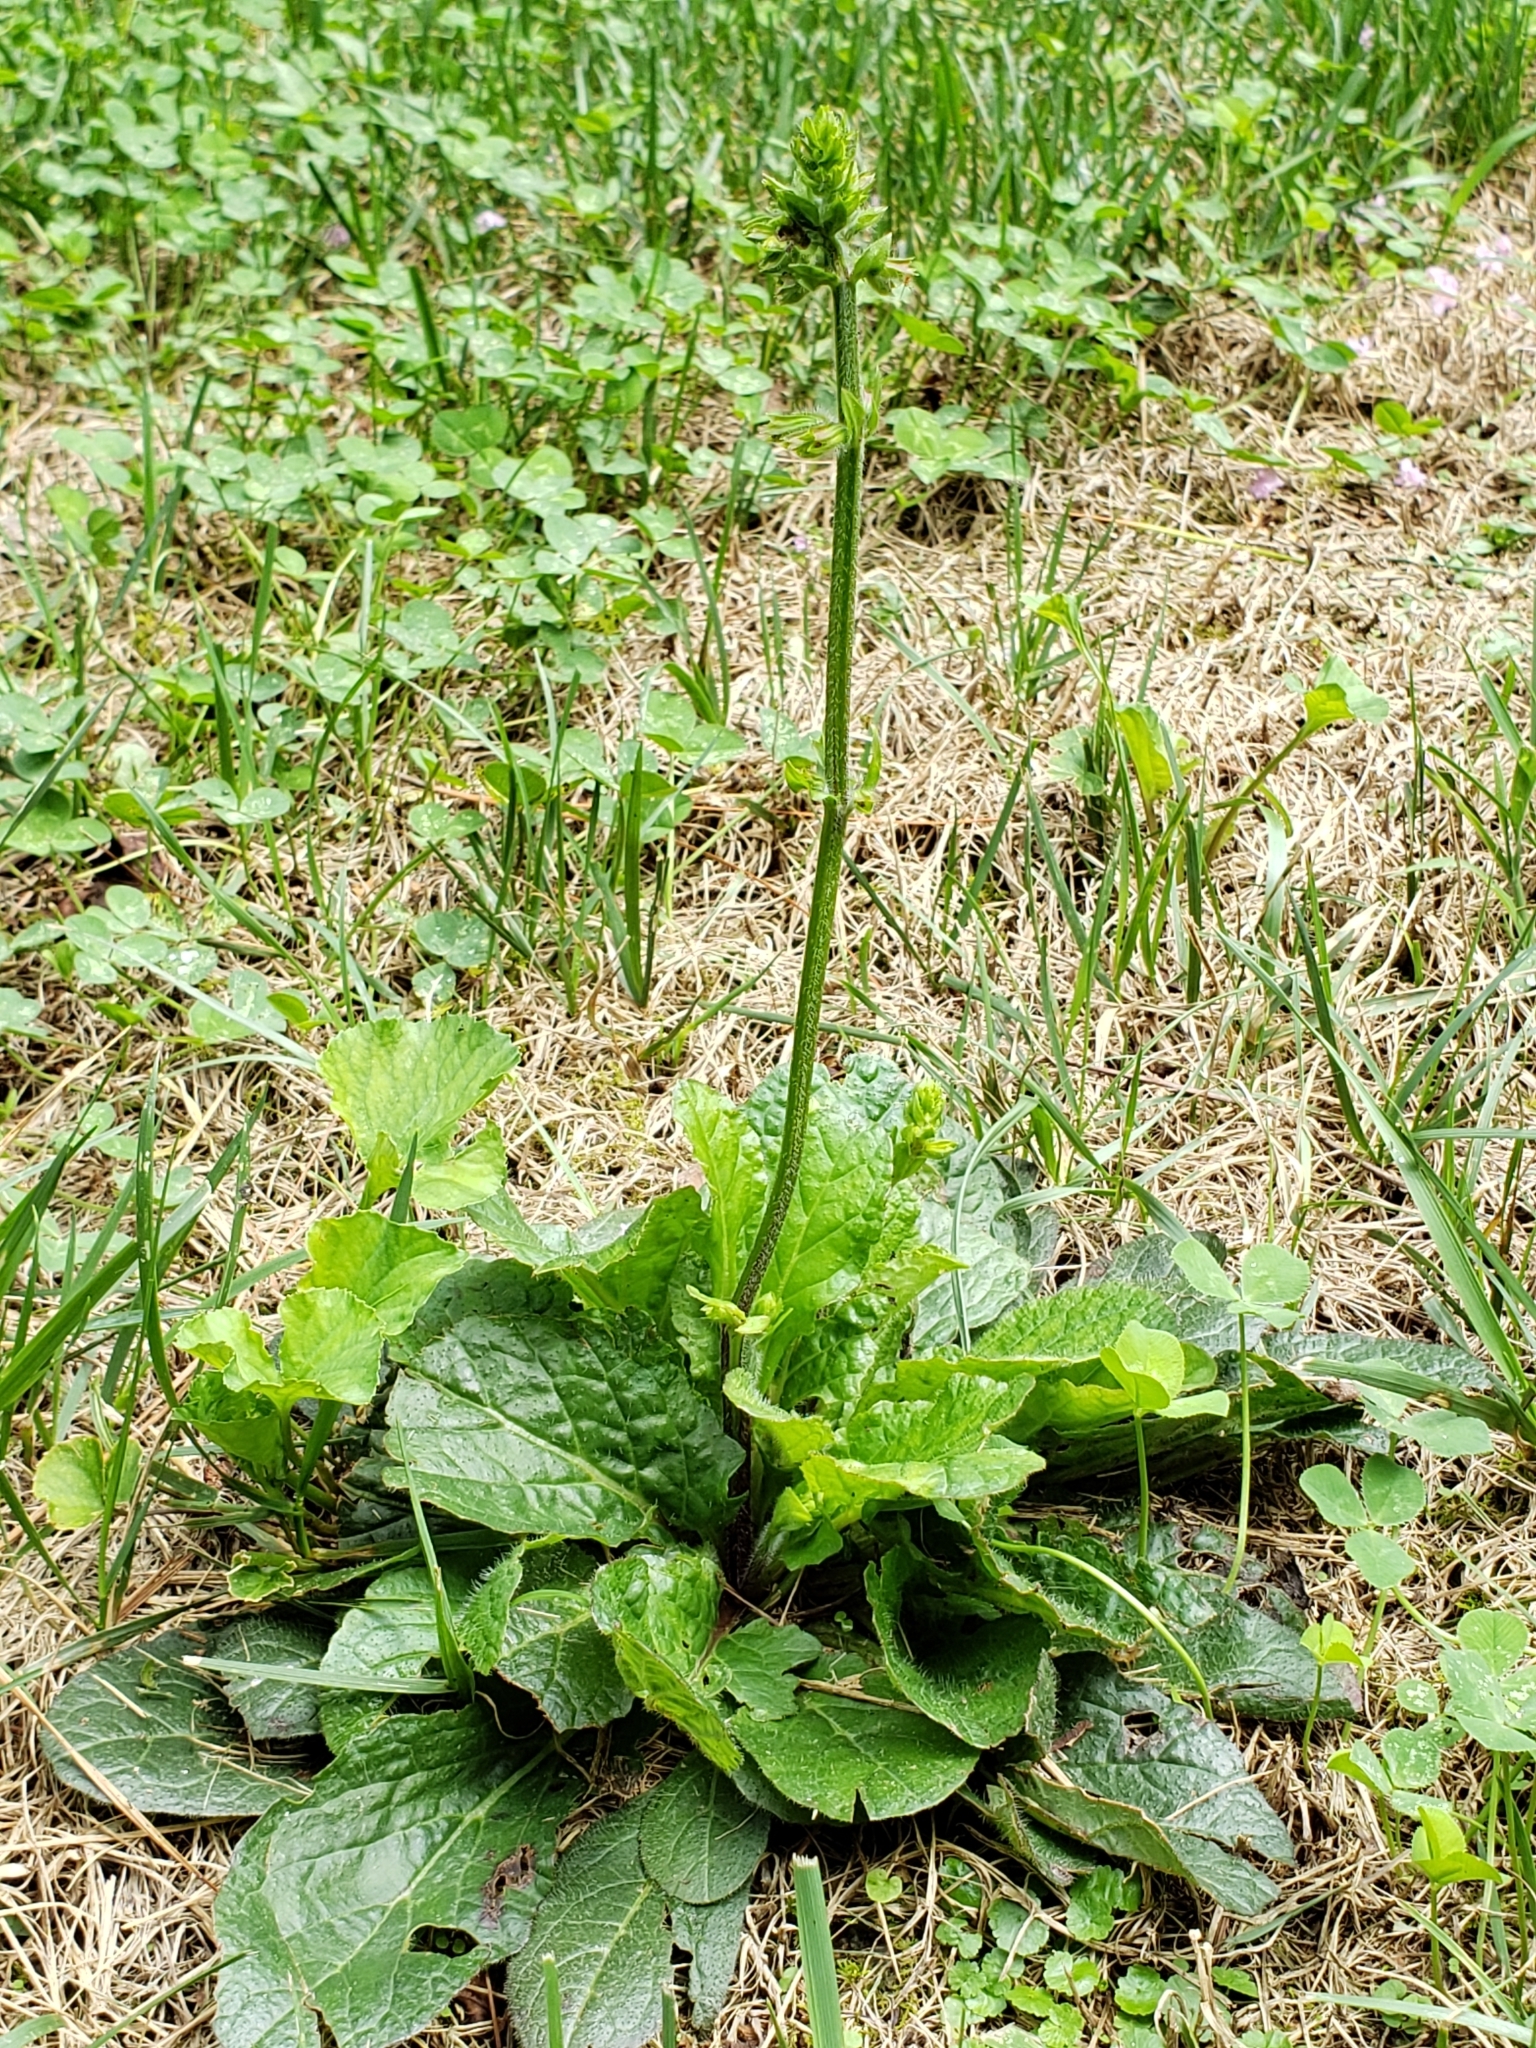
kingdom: Plantae
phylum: Tracheophyta
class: Magnoliopsida
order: Lamiales
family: Lamiaceae
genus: Salvia
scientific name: Salvia lyrata
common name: Cancerweed
